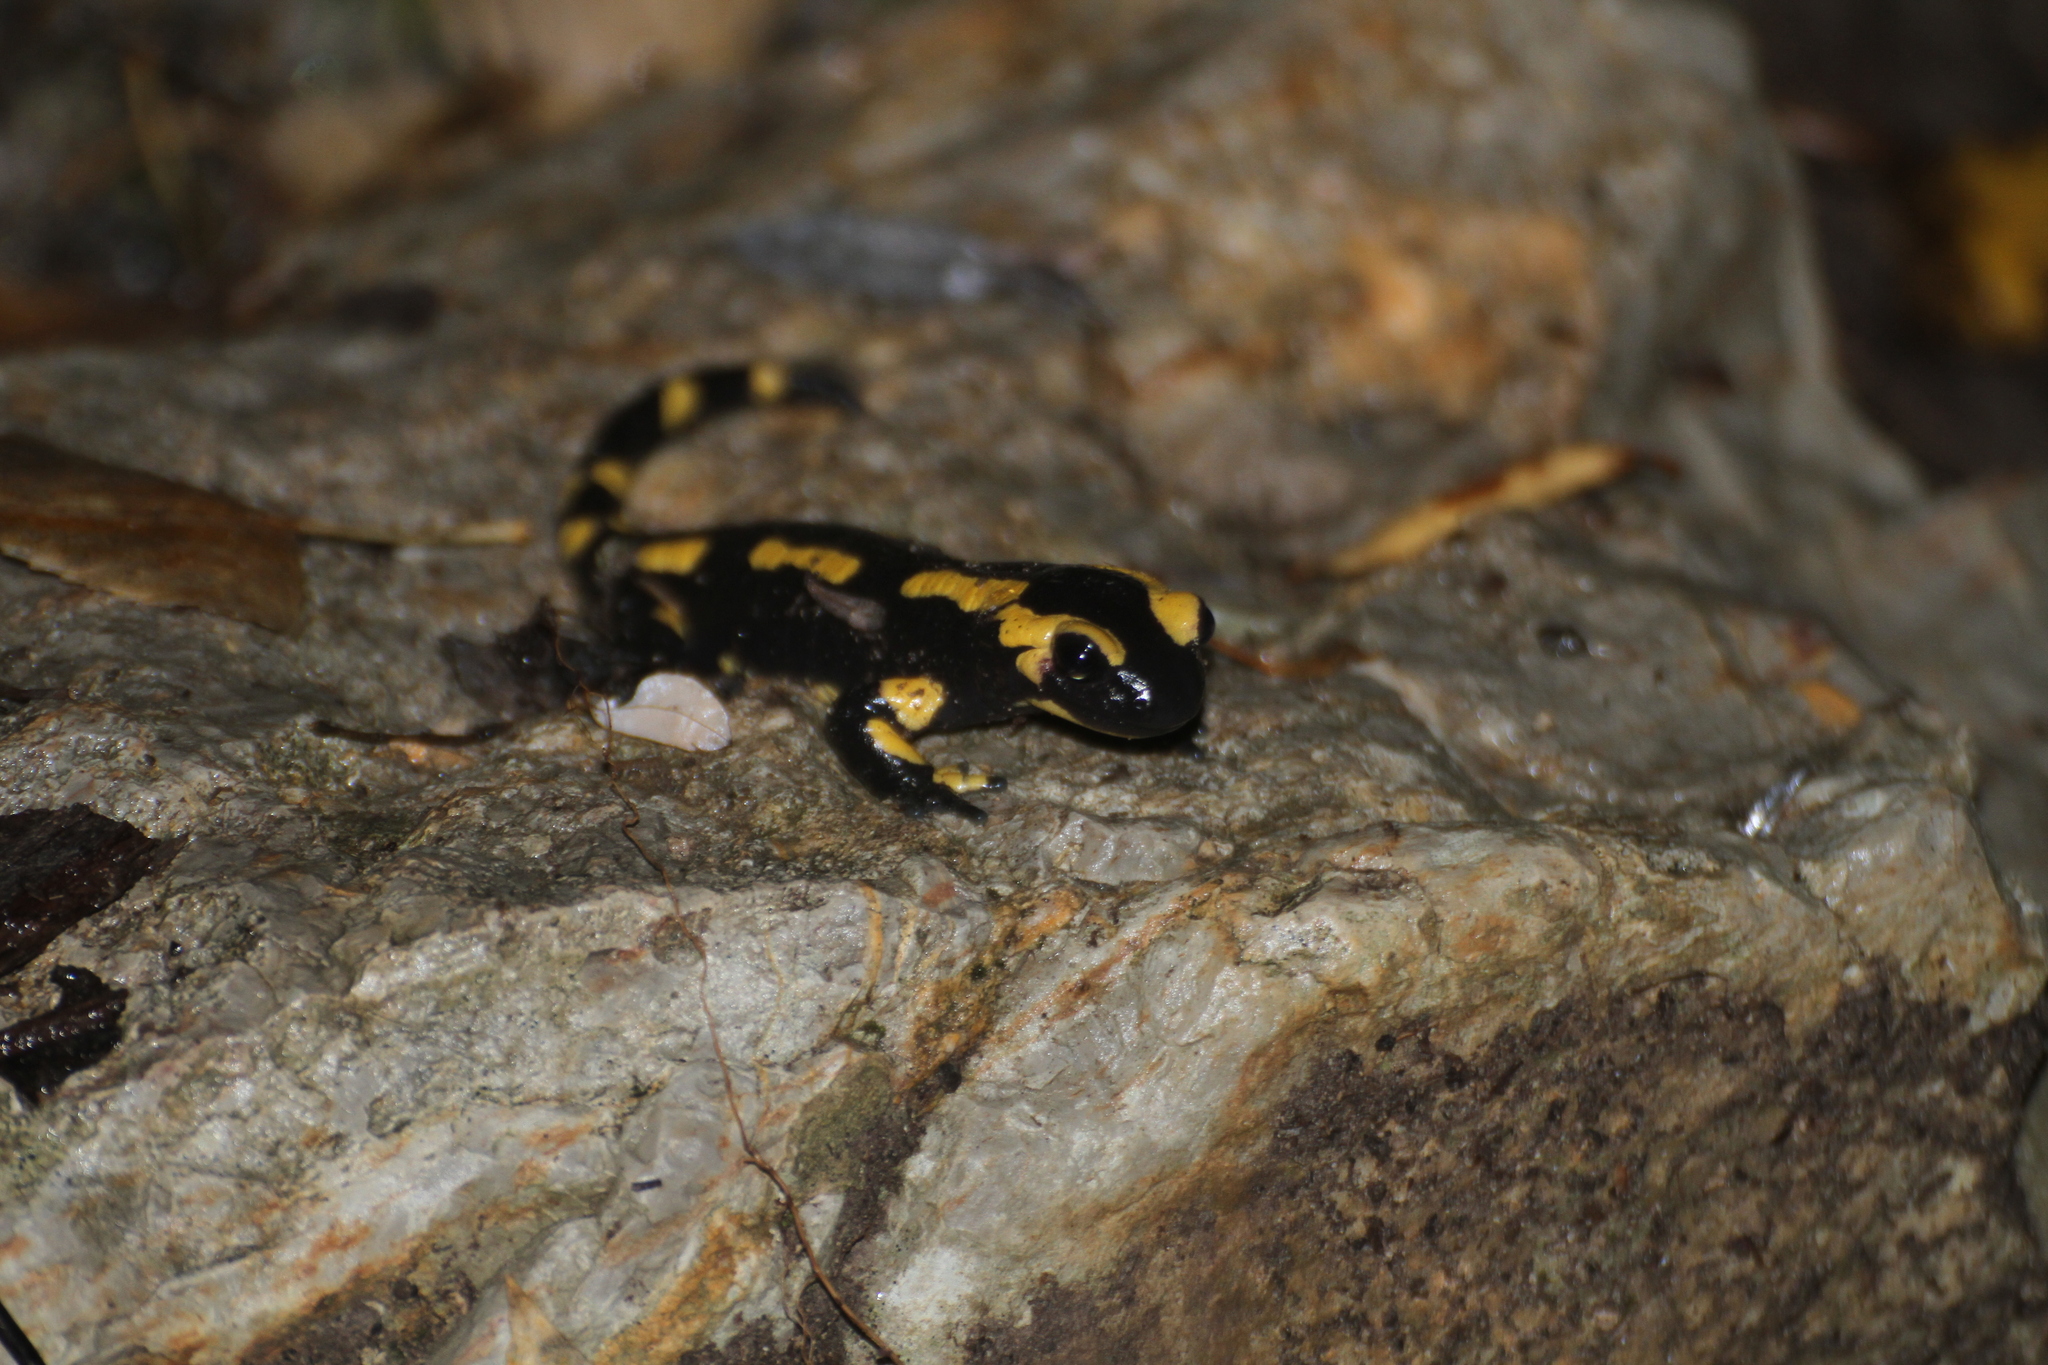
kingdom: Animalia
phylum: Chordata
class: Amphibia
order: Caudata
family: Salamandridae
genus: Salamandra
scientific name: Salamandra salamandra
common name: Fire salamander
